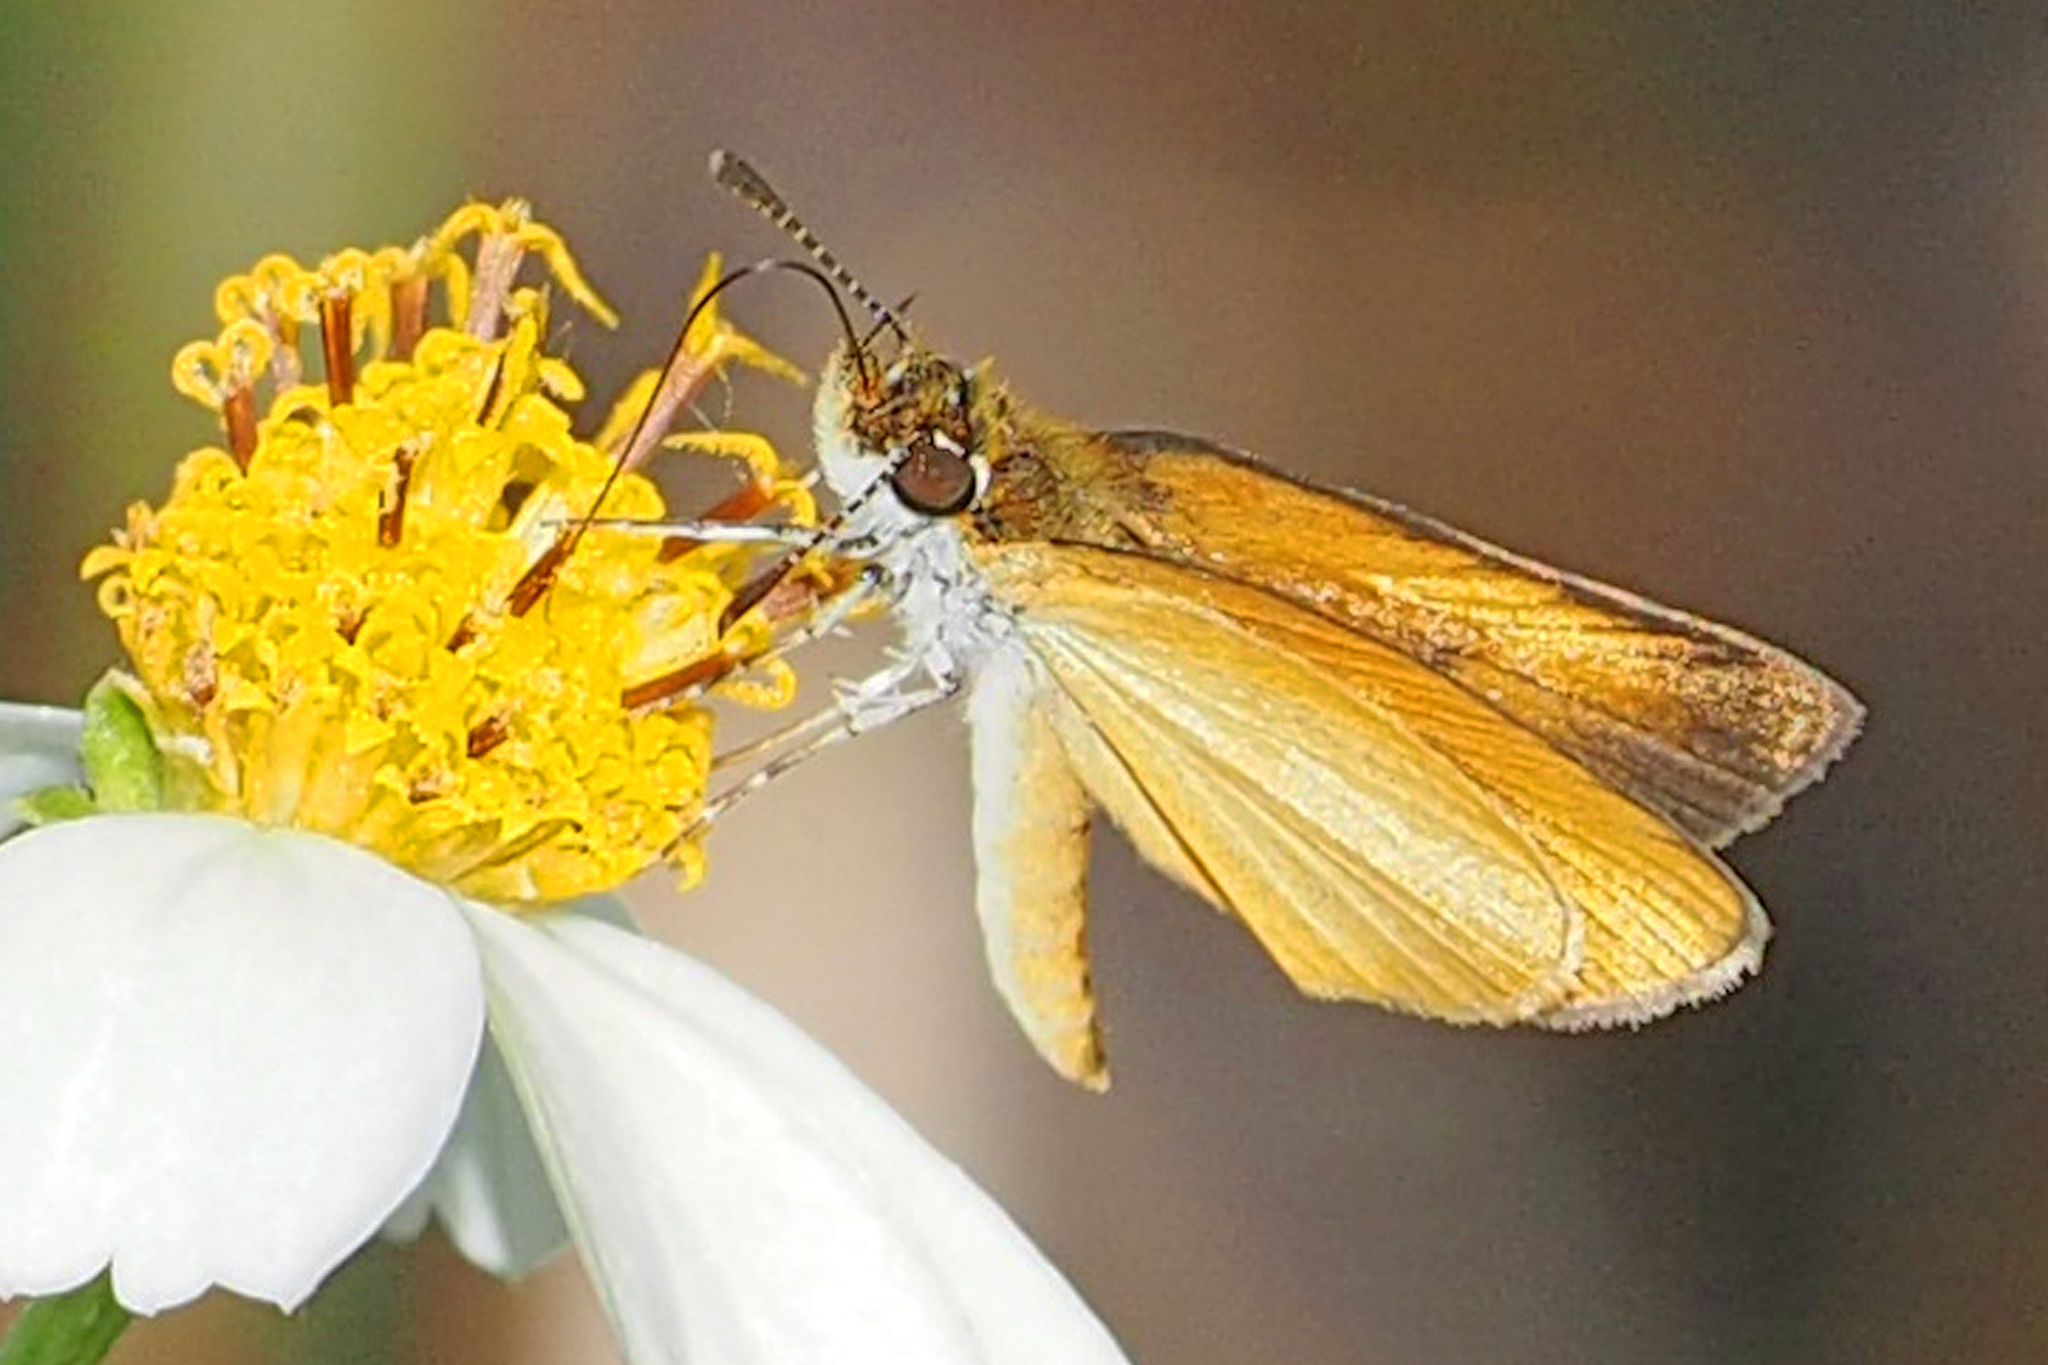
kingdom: Animalia
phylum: Arthropoda
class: Insecta
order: Lepidoptera
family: Hesperiidae
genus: Ancyloxypha
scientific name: Ancyloxypha numitor
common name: Least skipper
